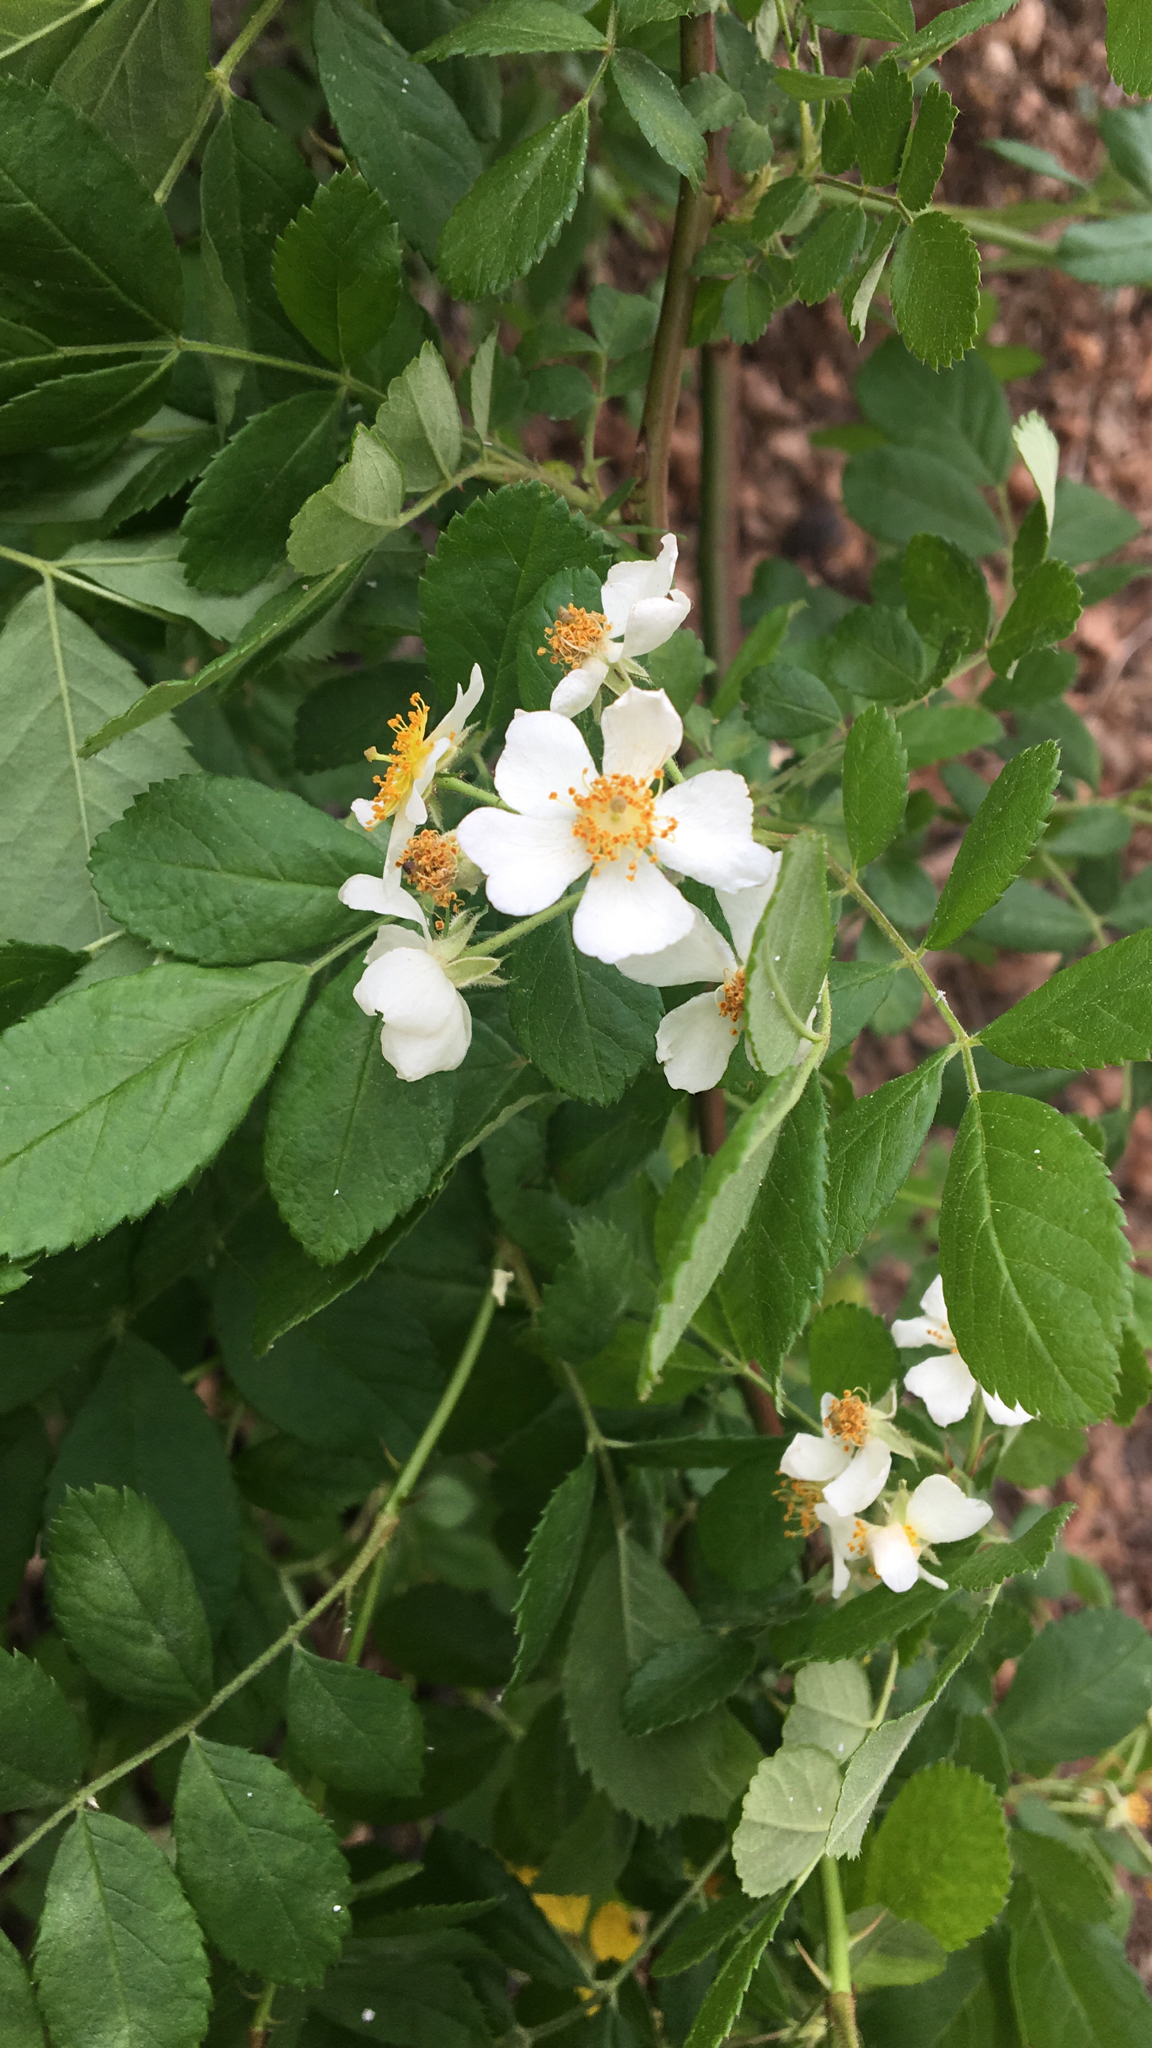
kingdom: Plantae
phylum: Tracheophyta
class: Magnoliopsida
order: Rosales
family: Rosaceae
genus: Rosa
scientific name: Rosa multiflora
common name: Multiflora rose
